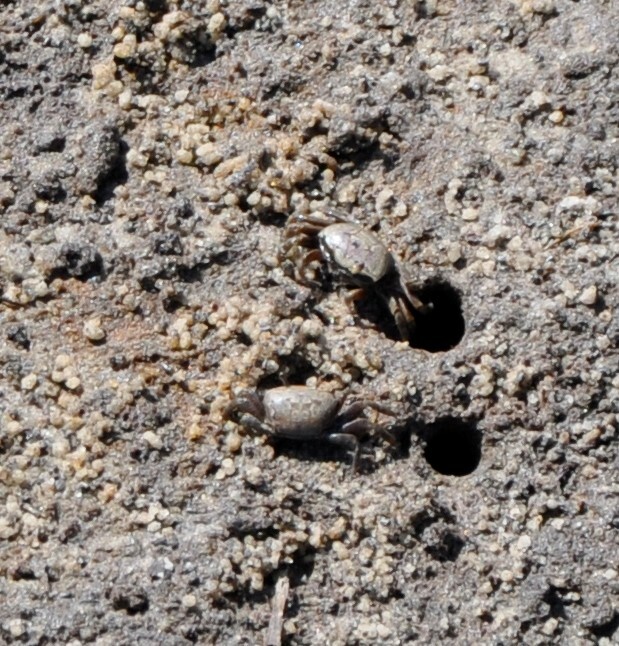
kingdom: Animalia
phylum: Arthropoda
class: Malacostraca
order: Decapoda
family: Ocypodidae
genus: Leptuca
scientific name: Leptuca pugilator
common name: Atlantic sand fiddler crab
